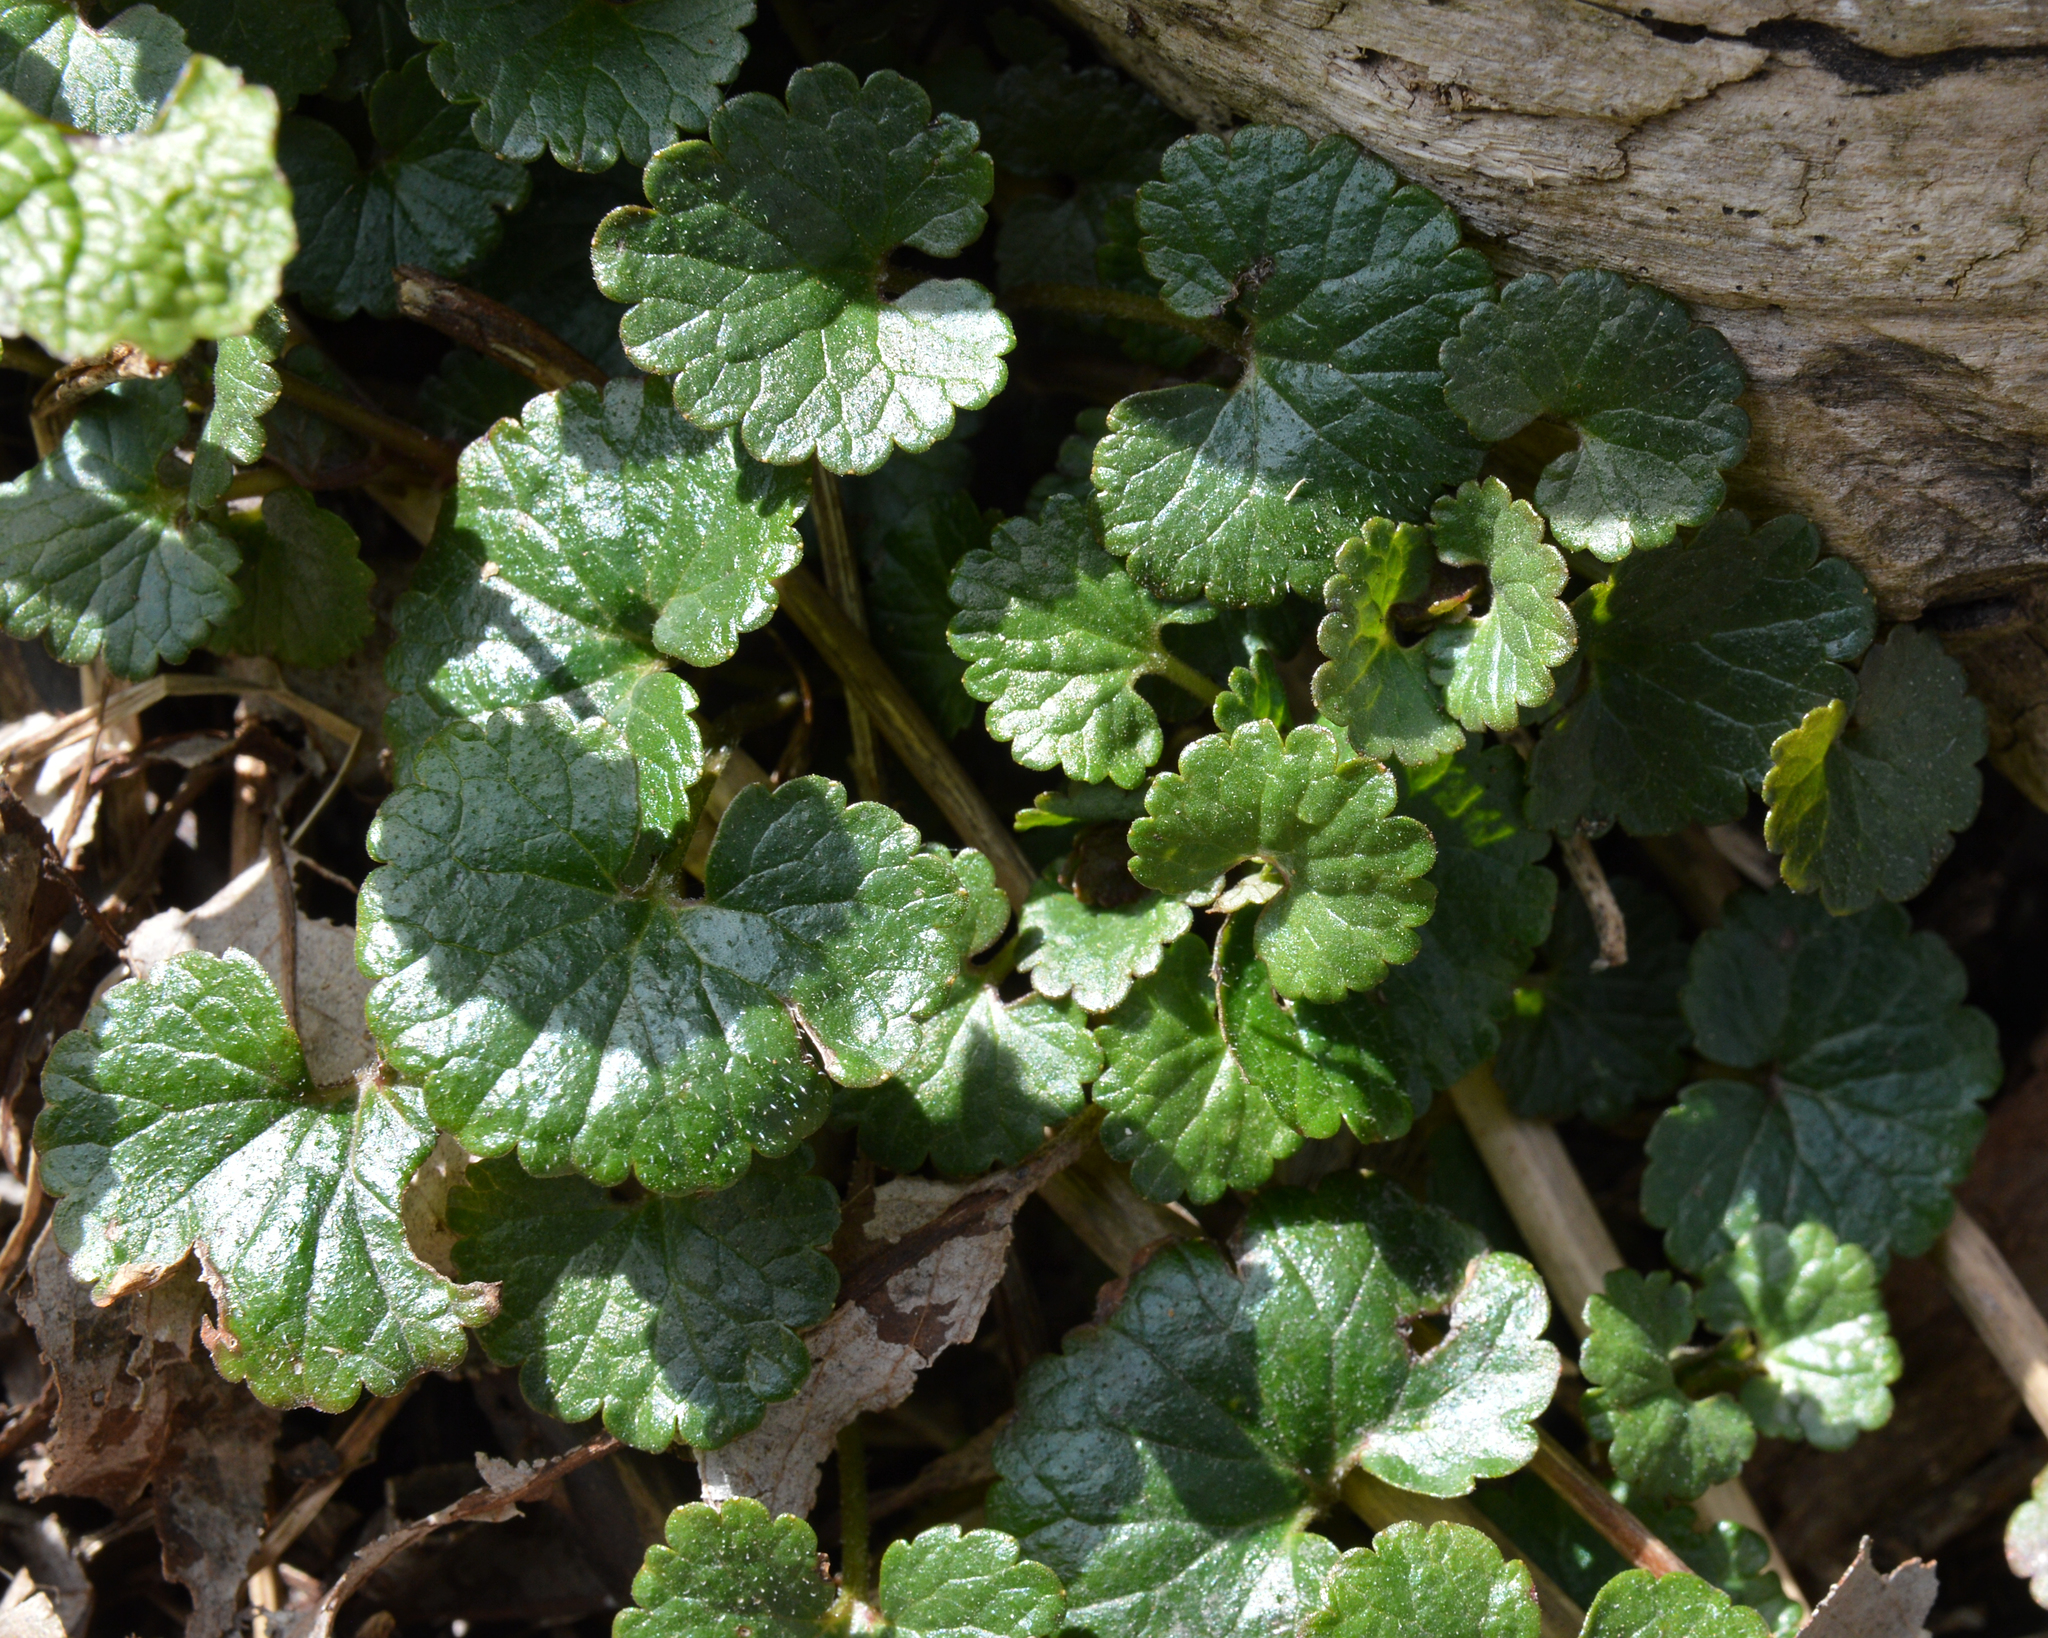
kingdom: Plantae
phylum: Tracheophyta
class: Magnoliopsida
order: Lamiales
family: Lamiaceae
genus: Glechoma
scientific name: Glechoma hederacea
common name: Ground ivy
